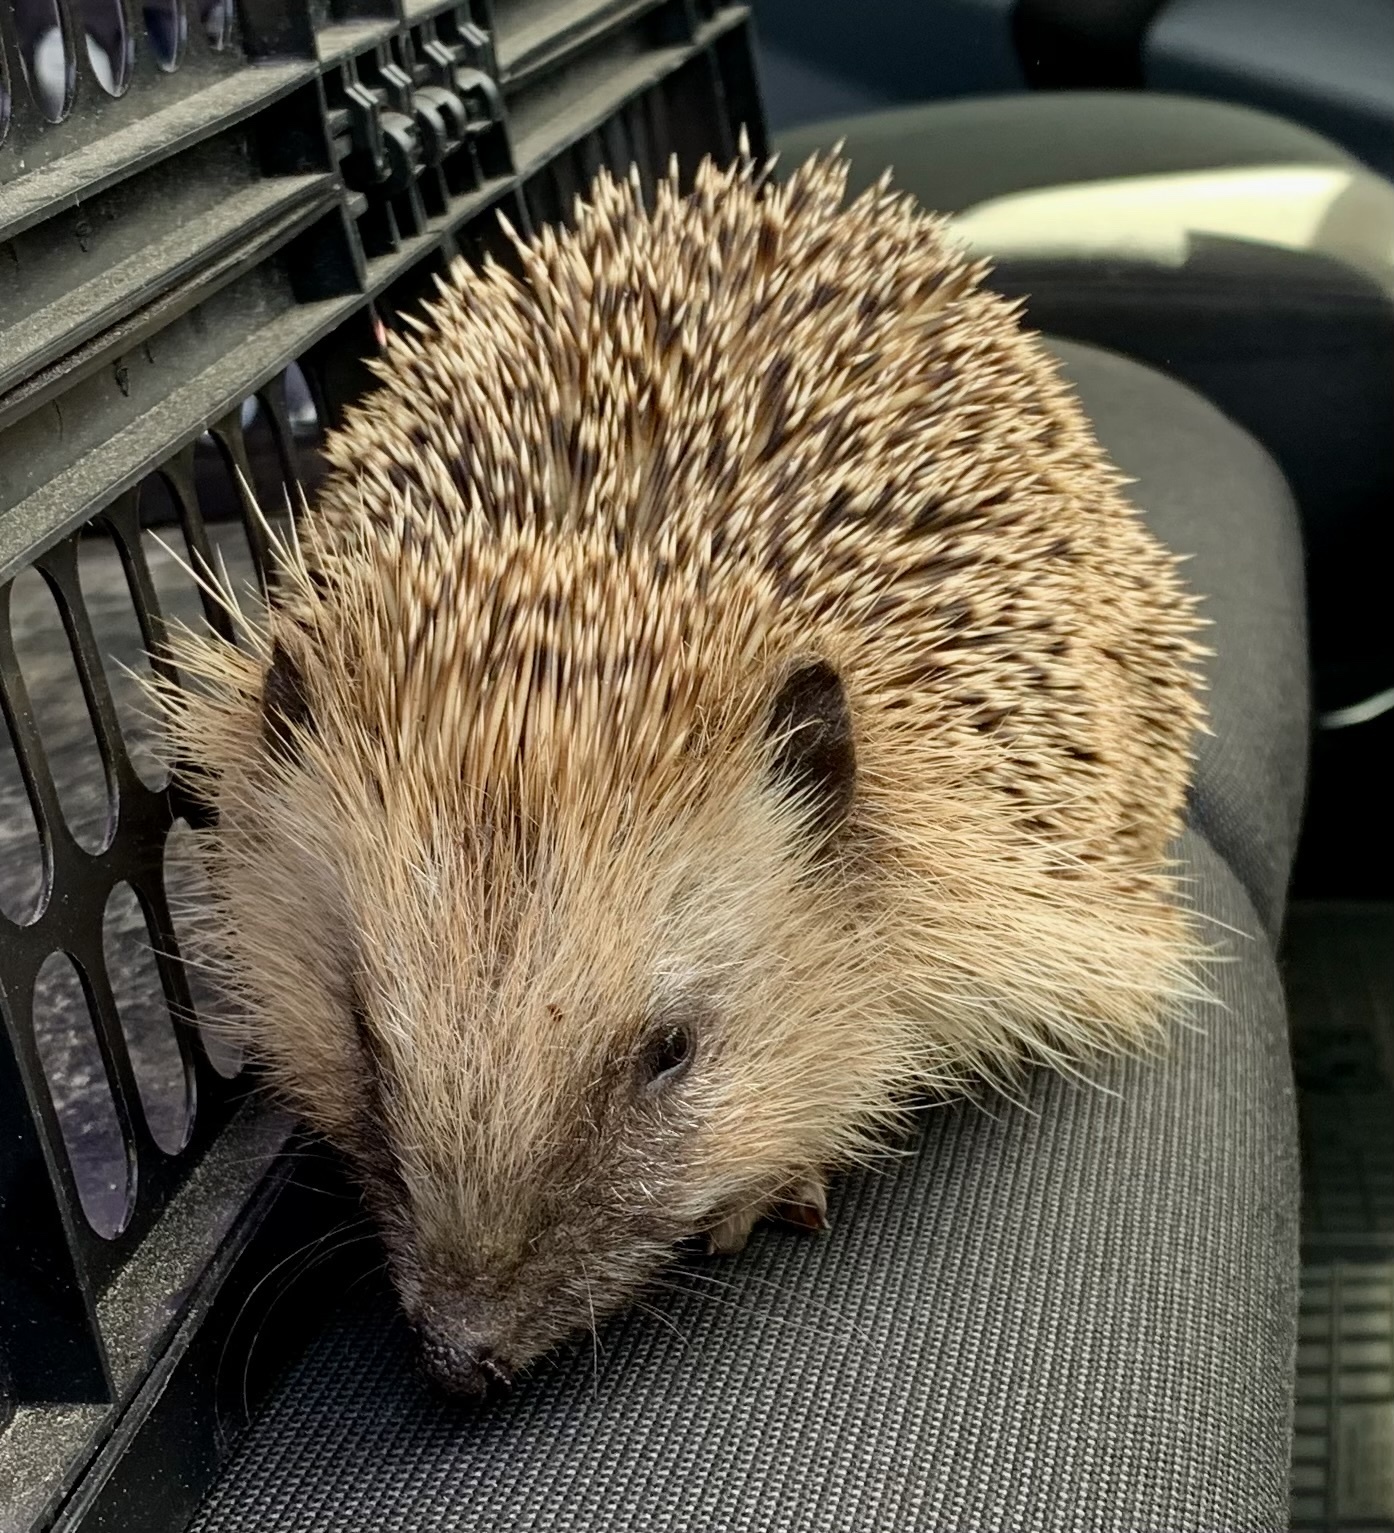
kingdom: Animalia
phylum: Chordata
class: Mammalia
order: Erinaceomorpha
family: Erinaceidae
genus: Erinaceus
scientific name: Erinaceus europaeus
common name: West european hedgehog
